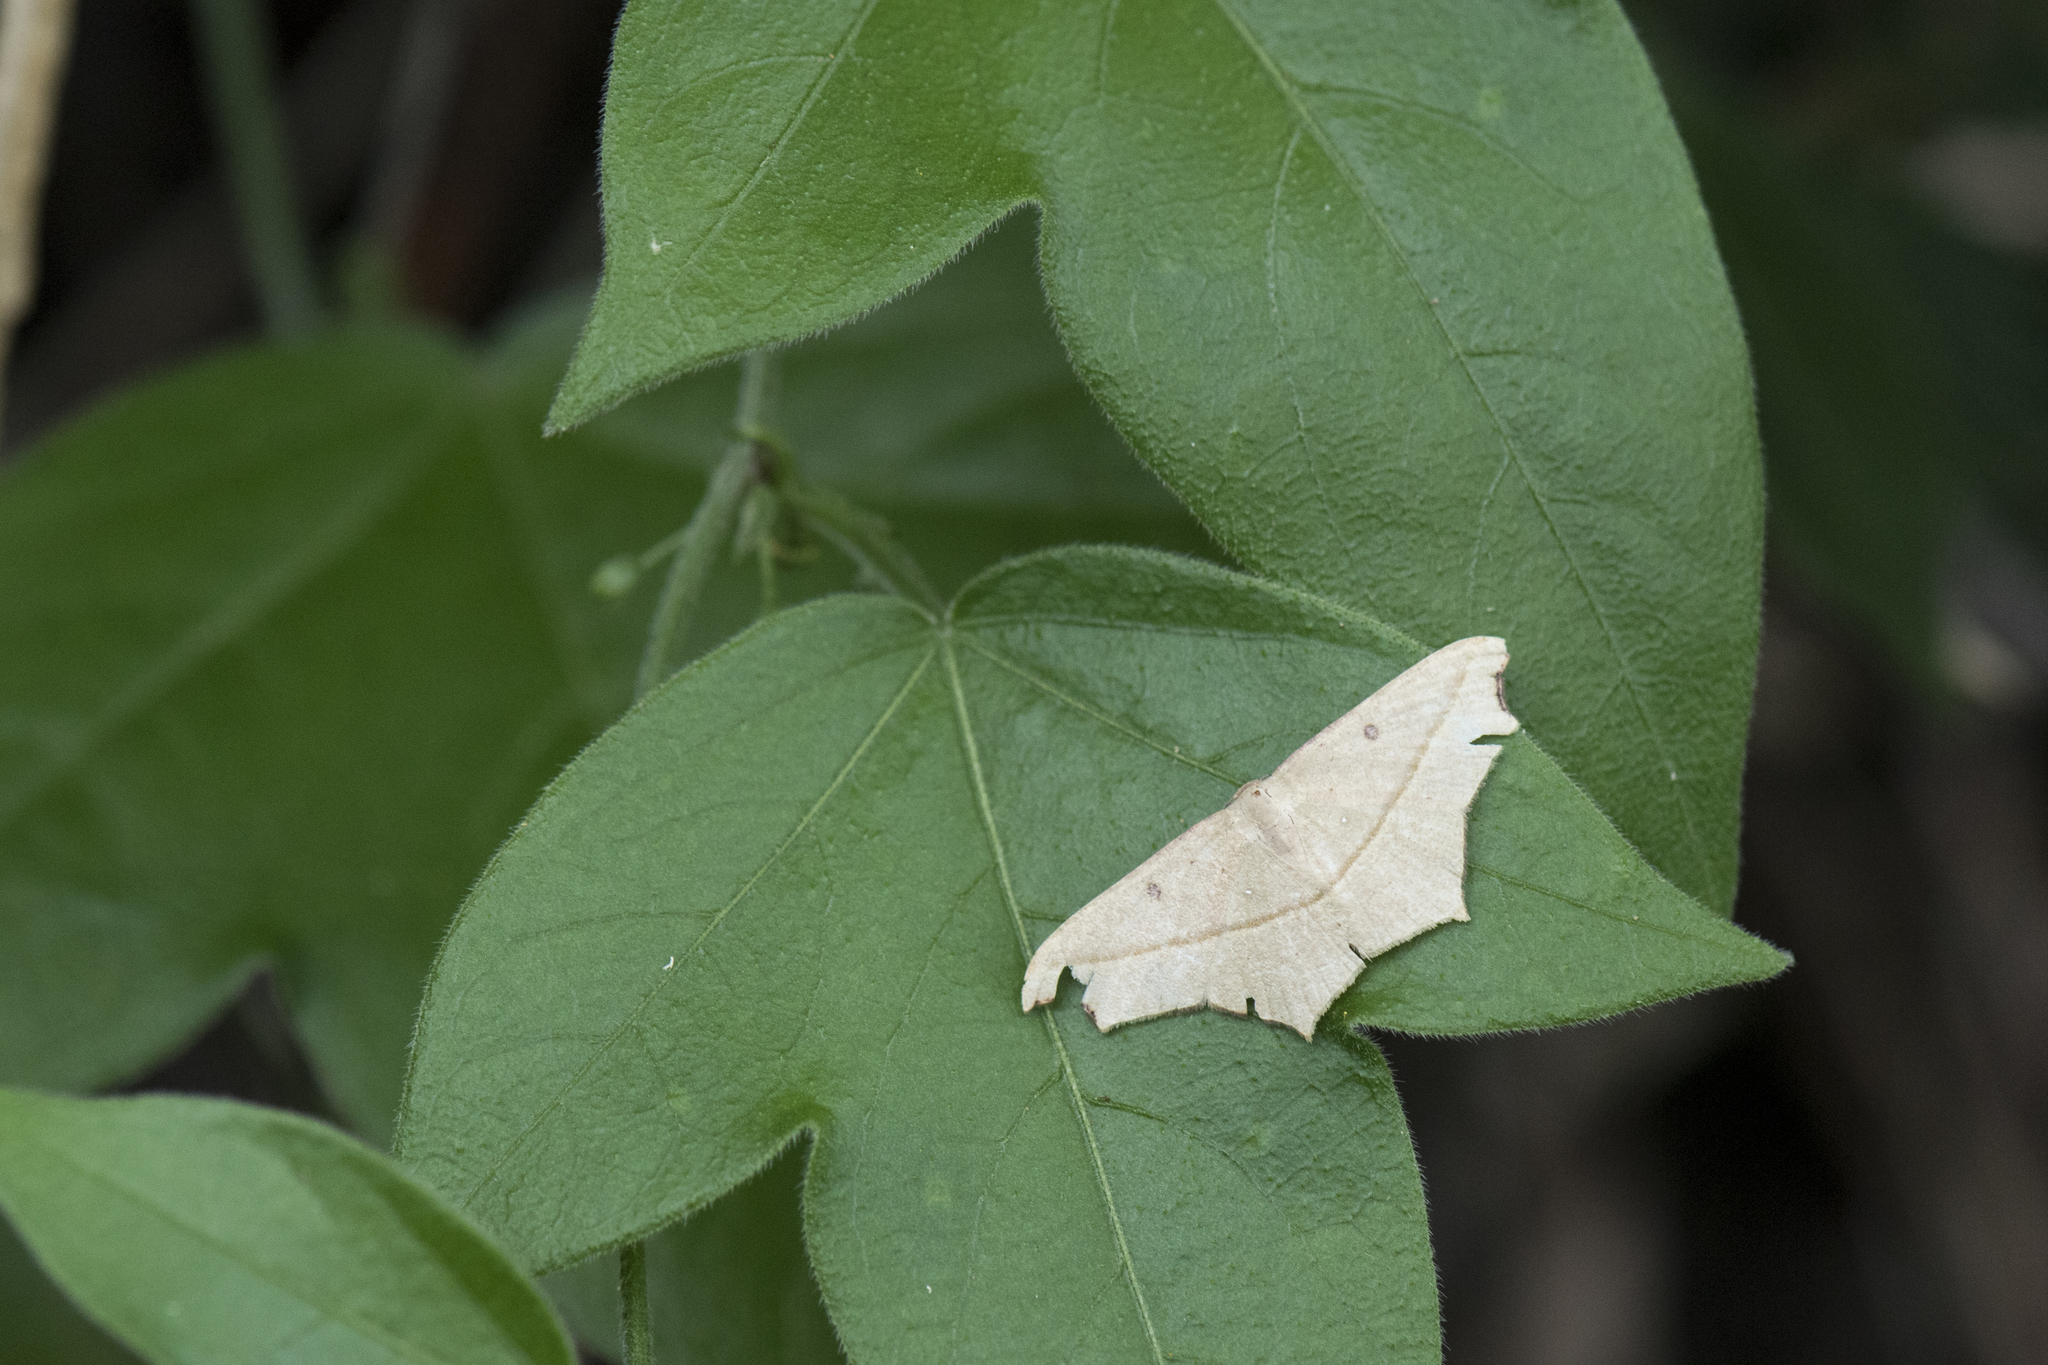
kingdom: Animalia
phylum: Arthropoda
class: Insecta
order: Lepidoptera
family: Geometridae
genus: Traminda
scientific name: Traminda aventiaria
